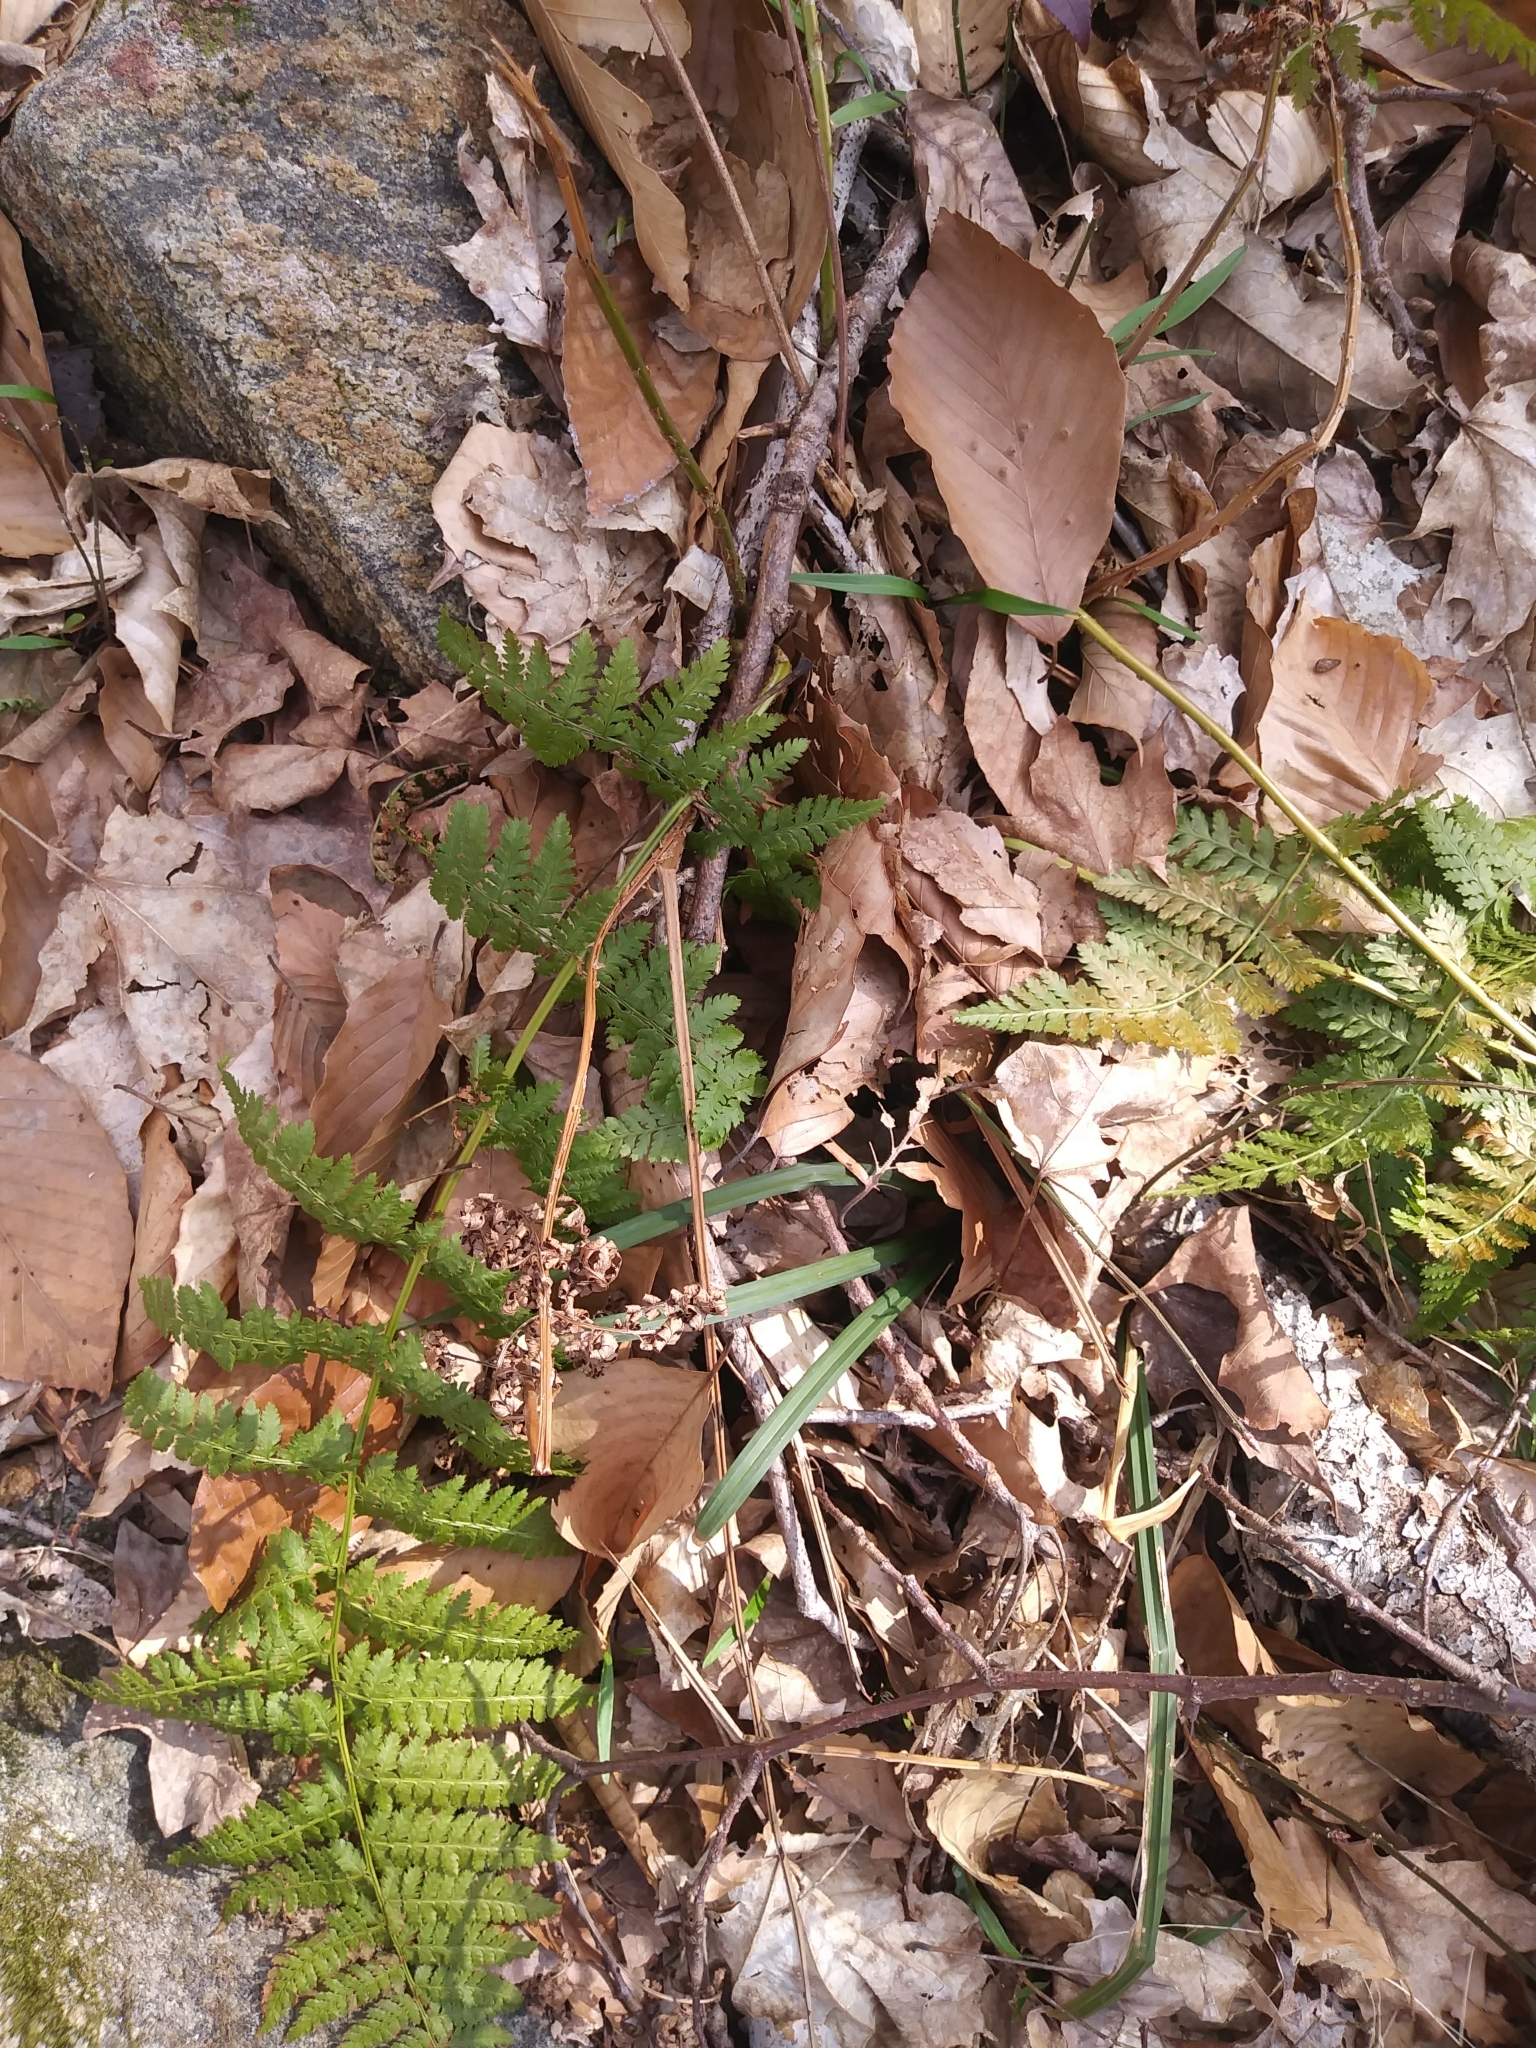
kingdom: Plantae
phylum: Tracheophyta
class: Polypodiopsida
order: Polypodiales
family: Dryopteridaceae
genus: Dryopteris
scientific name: Dryopteris intermedia
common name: Evergreen wood fern
